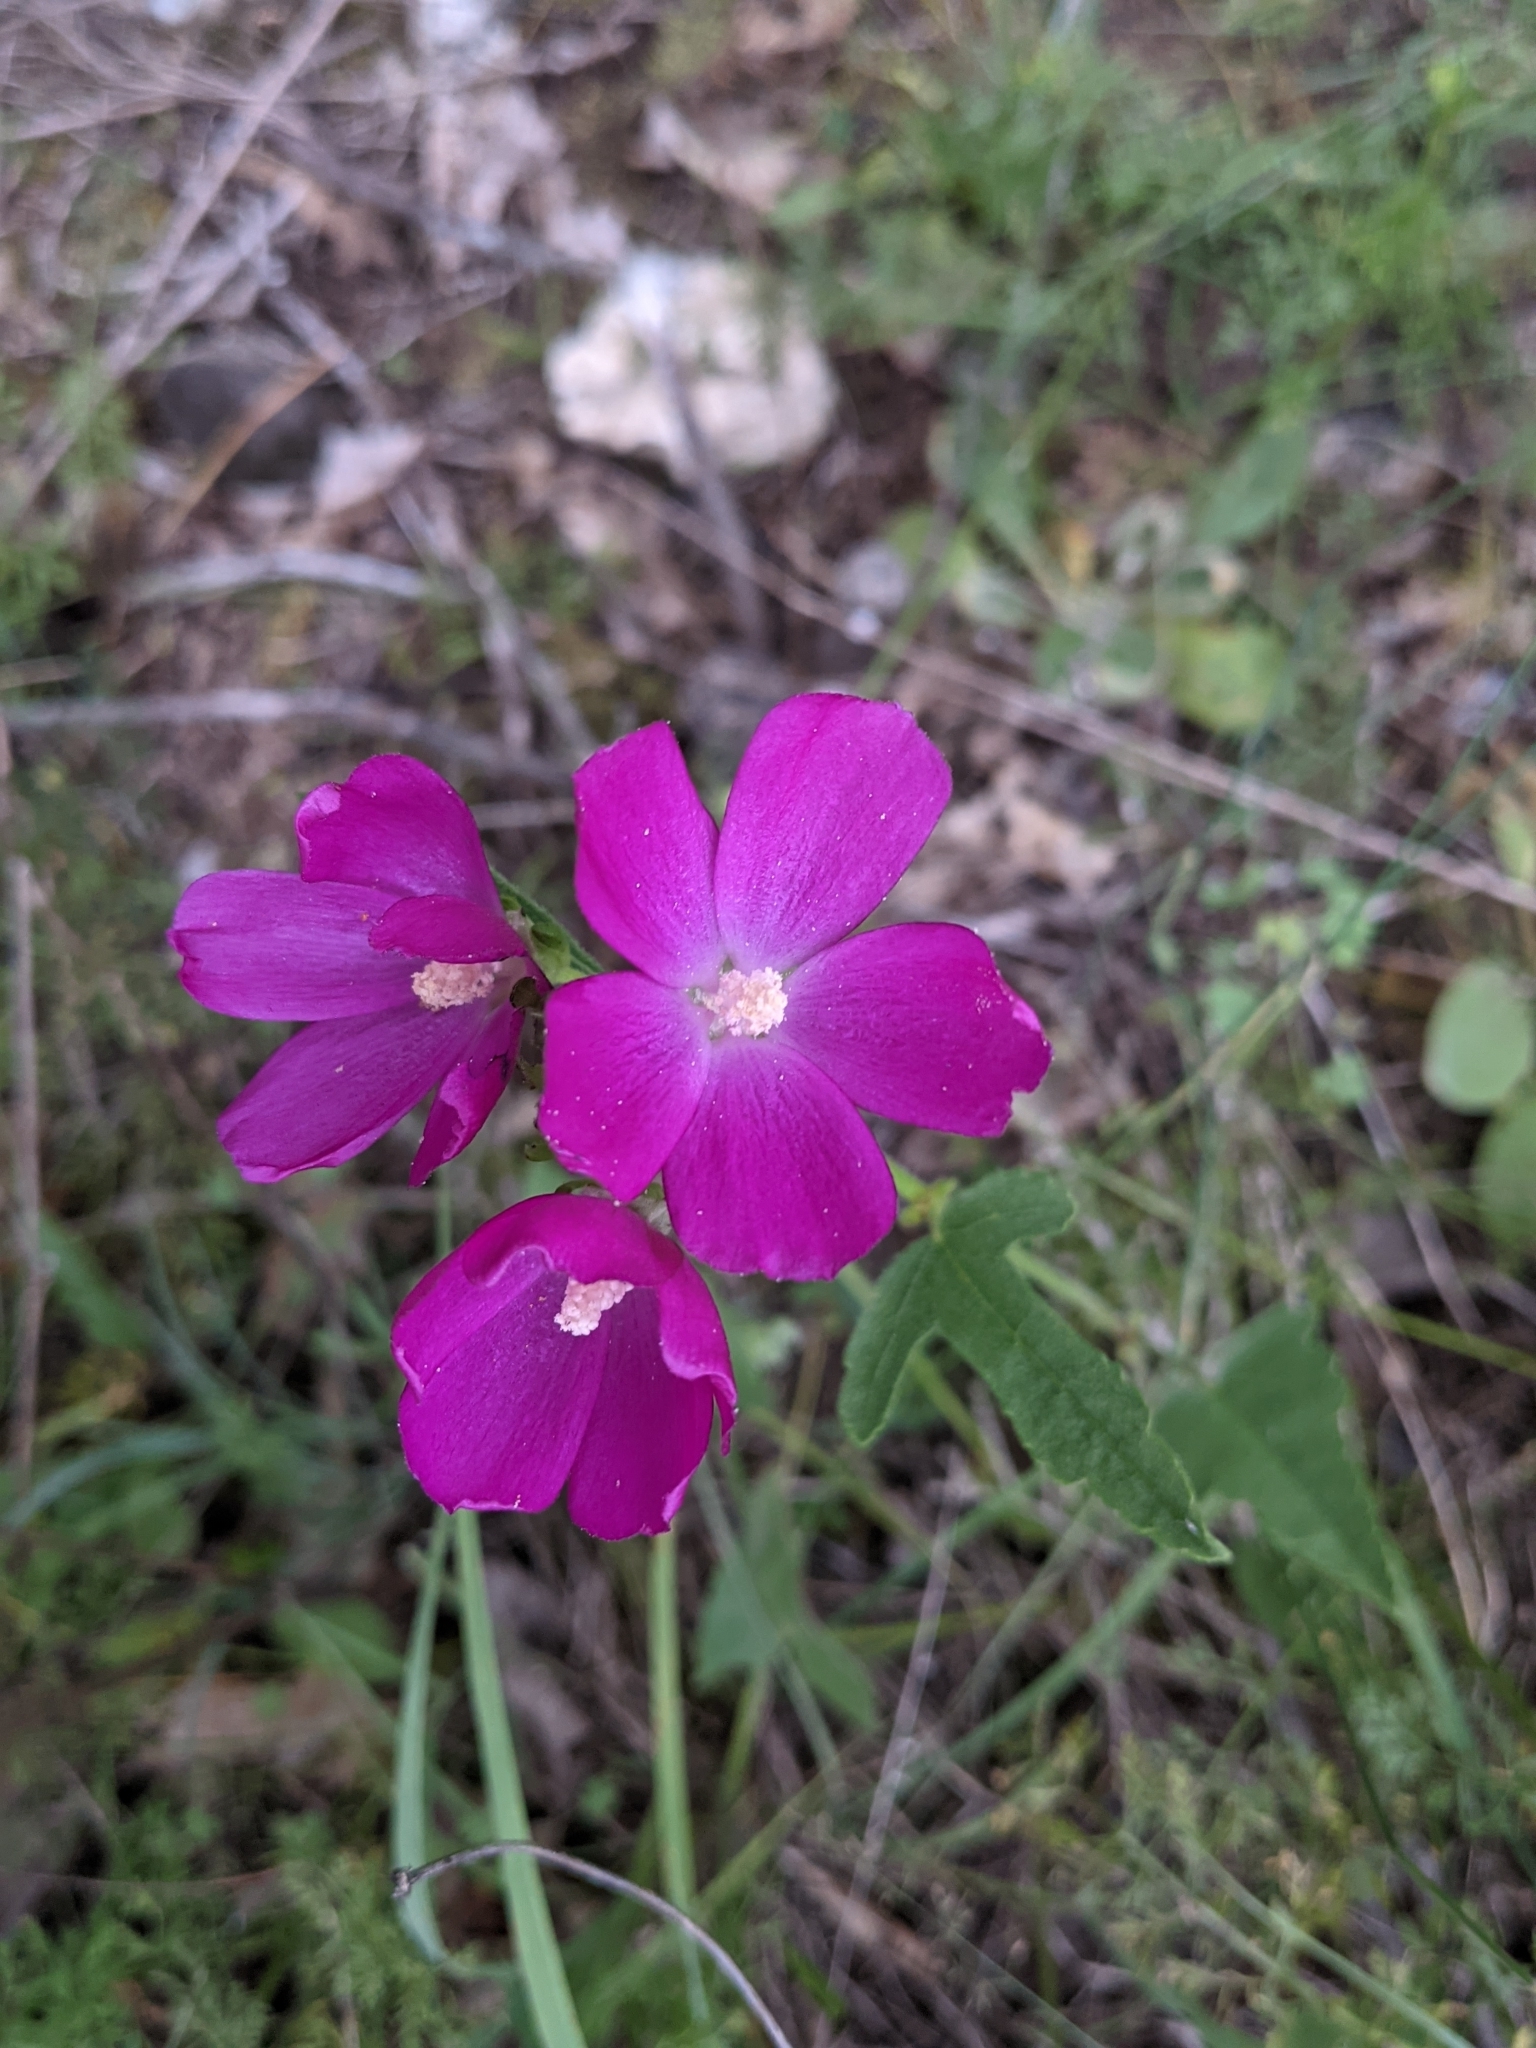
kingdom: Plantae
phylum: Tracheophyta
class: Magnoliopsida
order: Malvales
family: Malvaceae
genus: Callirhoe
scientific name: Callirhoe triangulata
